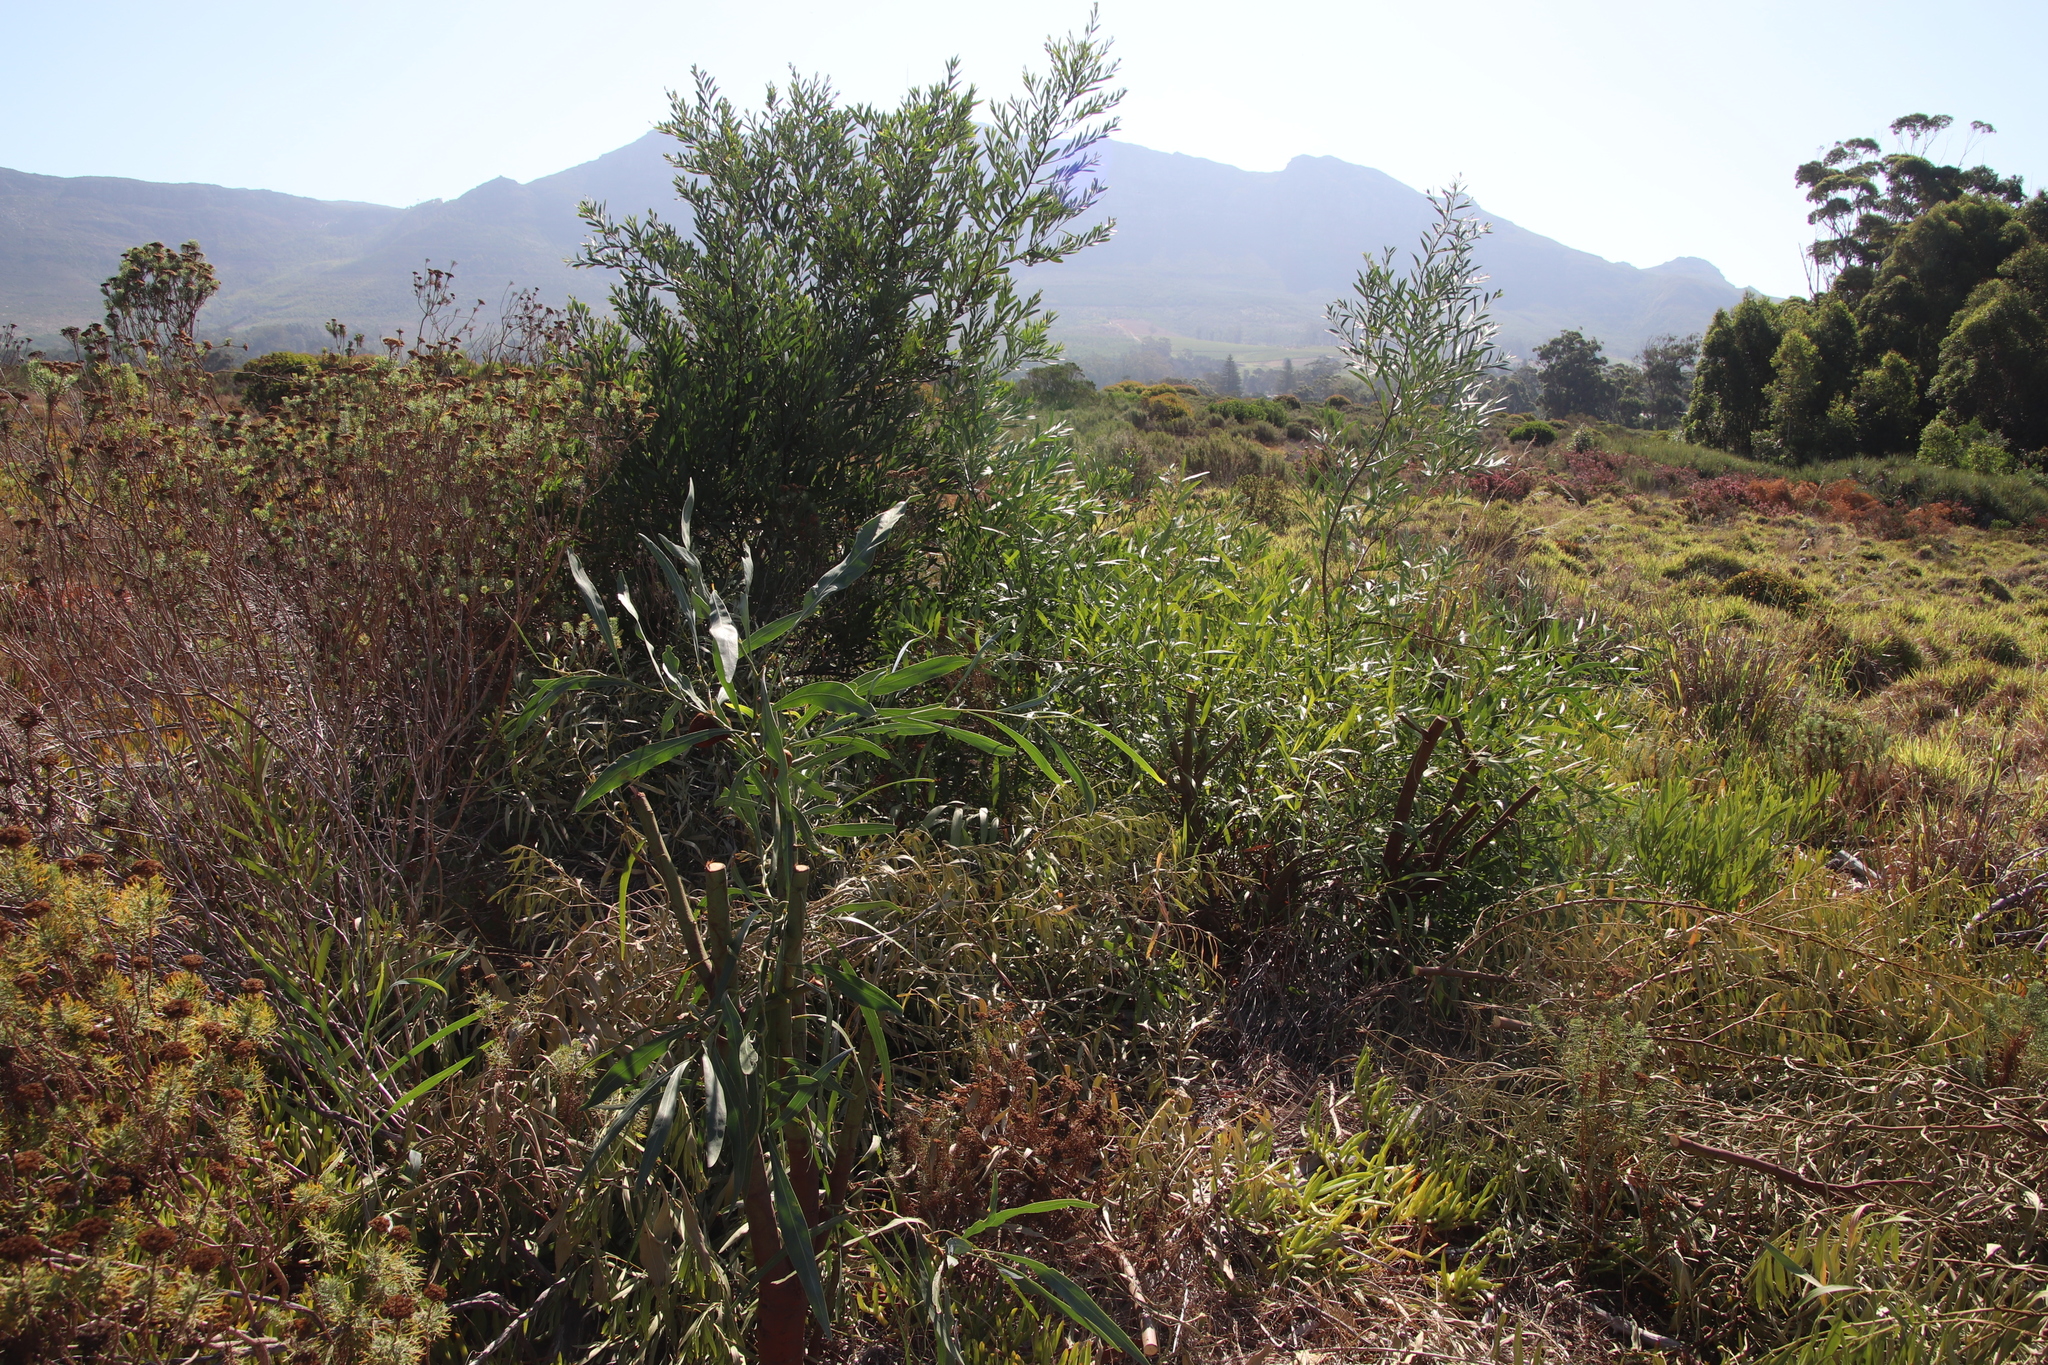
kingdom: Plantae
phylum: Tracheophyta
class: Magnoliopsida
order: Fabales
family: Fabaceae
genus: Acacia
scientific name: Acacia saligna
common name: Orange wattle
